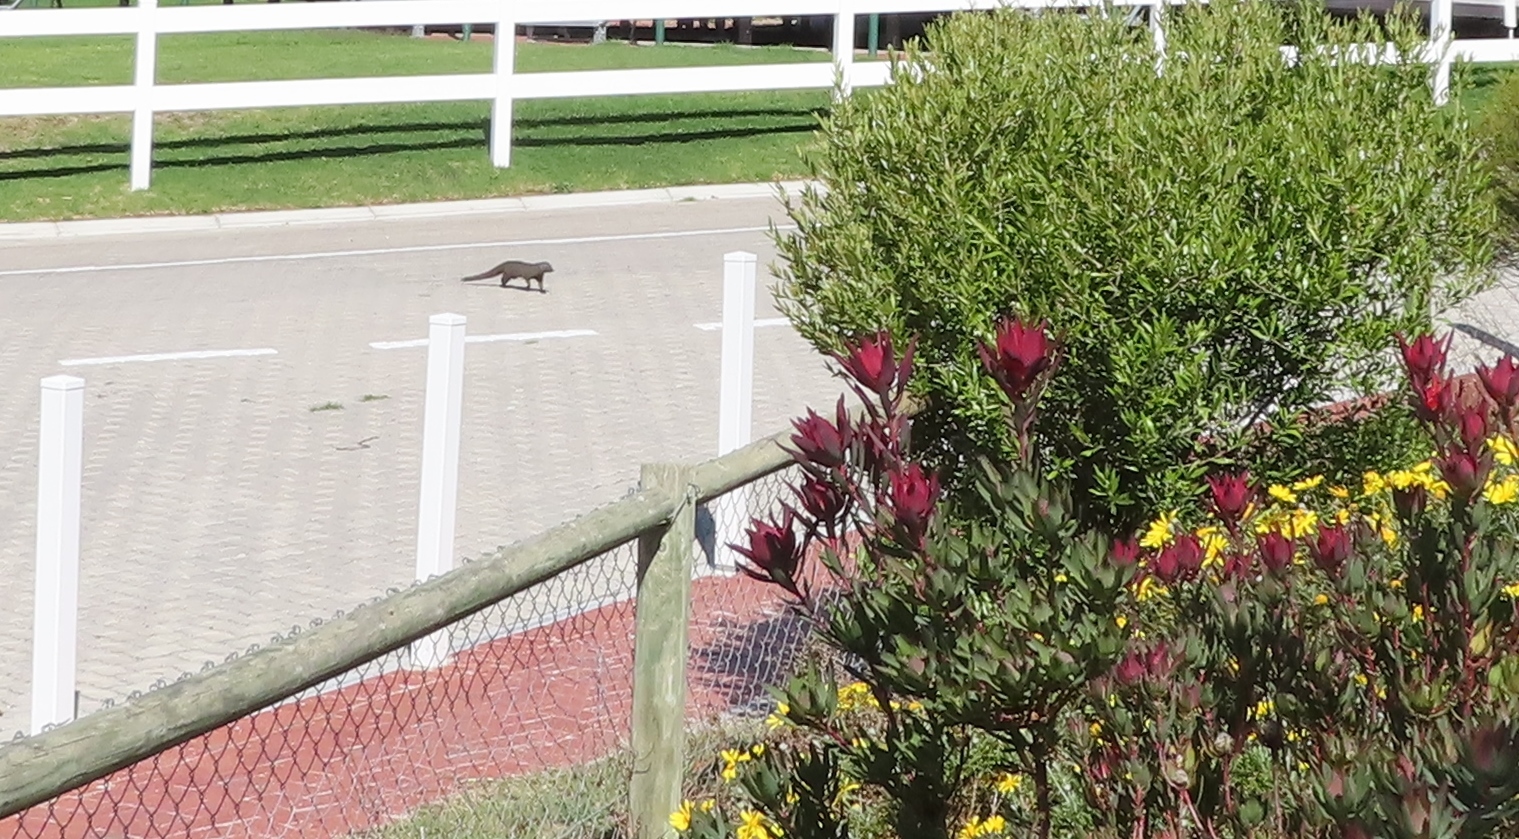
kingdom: Animalia
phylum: Chordata
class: Mammalia
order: Carnivora
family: Herpestidae
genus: Galerella
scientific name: Galerella pulverulenta
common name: Cape gray mongoose
